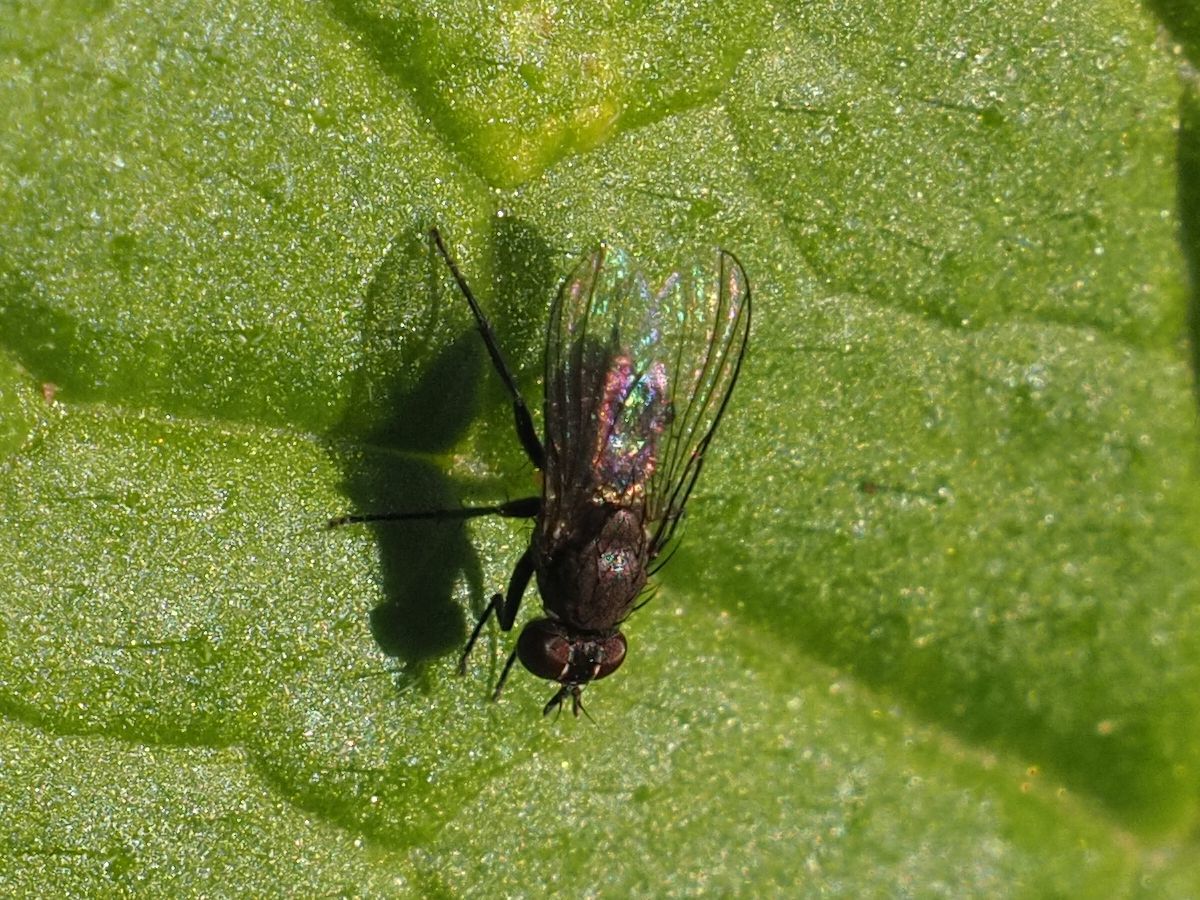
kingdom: Animalia
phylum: Arthropoda
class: Insecta
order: Diptera
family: Muscidae
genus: Coenosia
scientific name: Coenosia agromyzina
